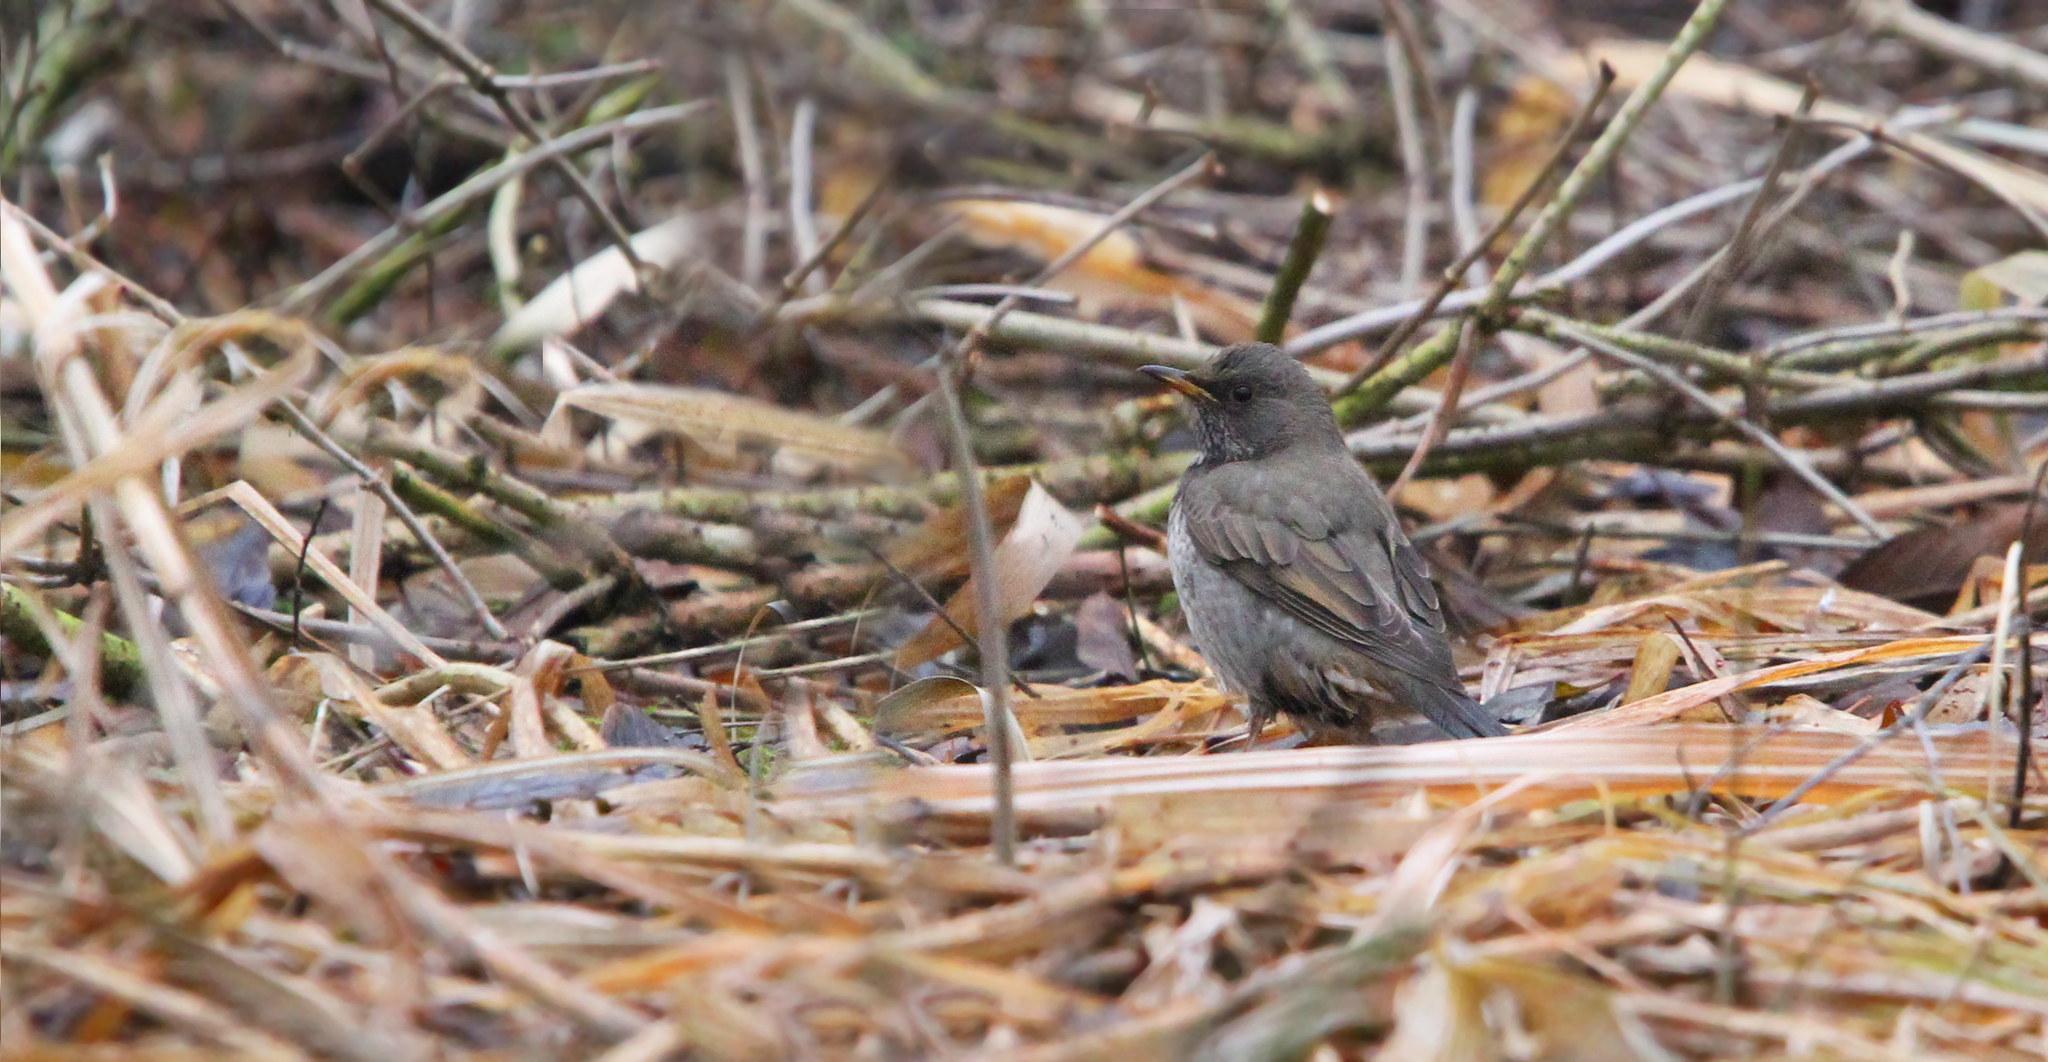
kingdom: Animalia
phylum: Chordata
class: Aves
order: Passeriformes
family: Turdidae
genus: Turdus
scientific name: Turdus atrogularis
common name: Black-throated thrush
